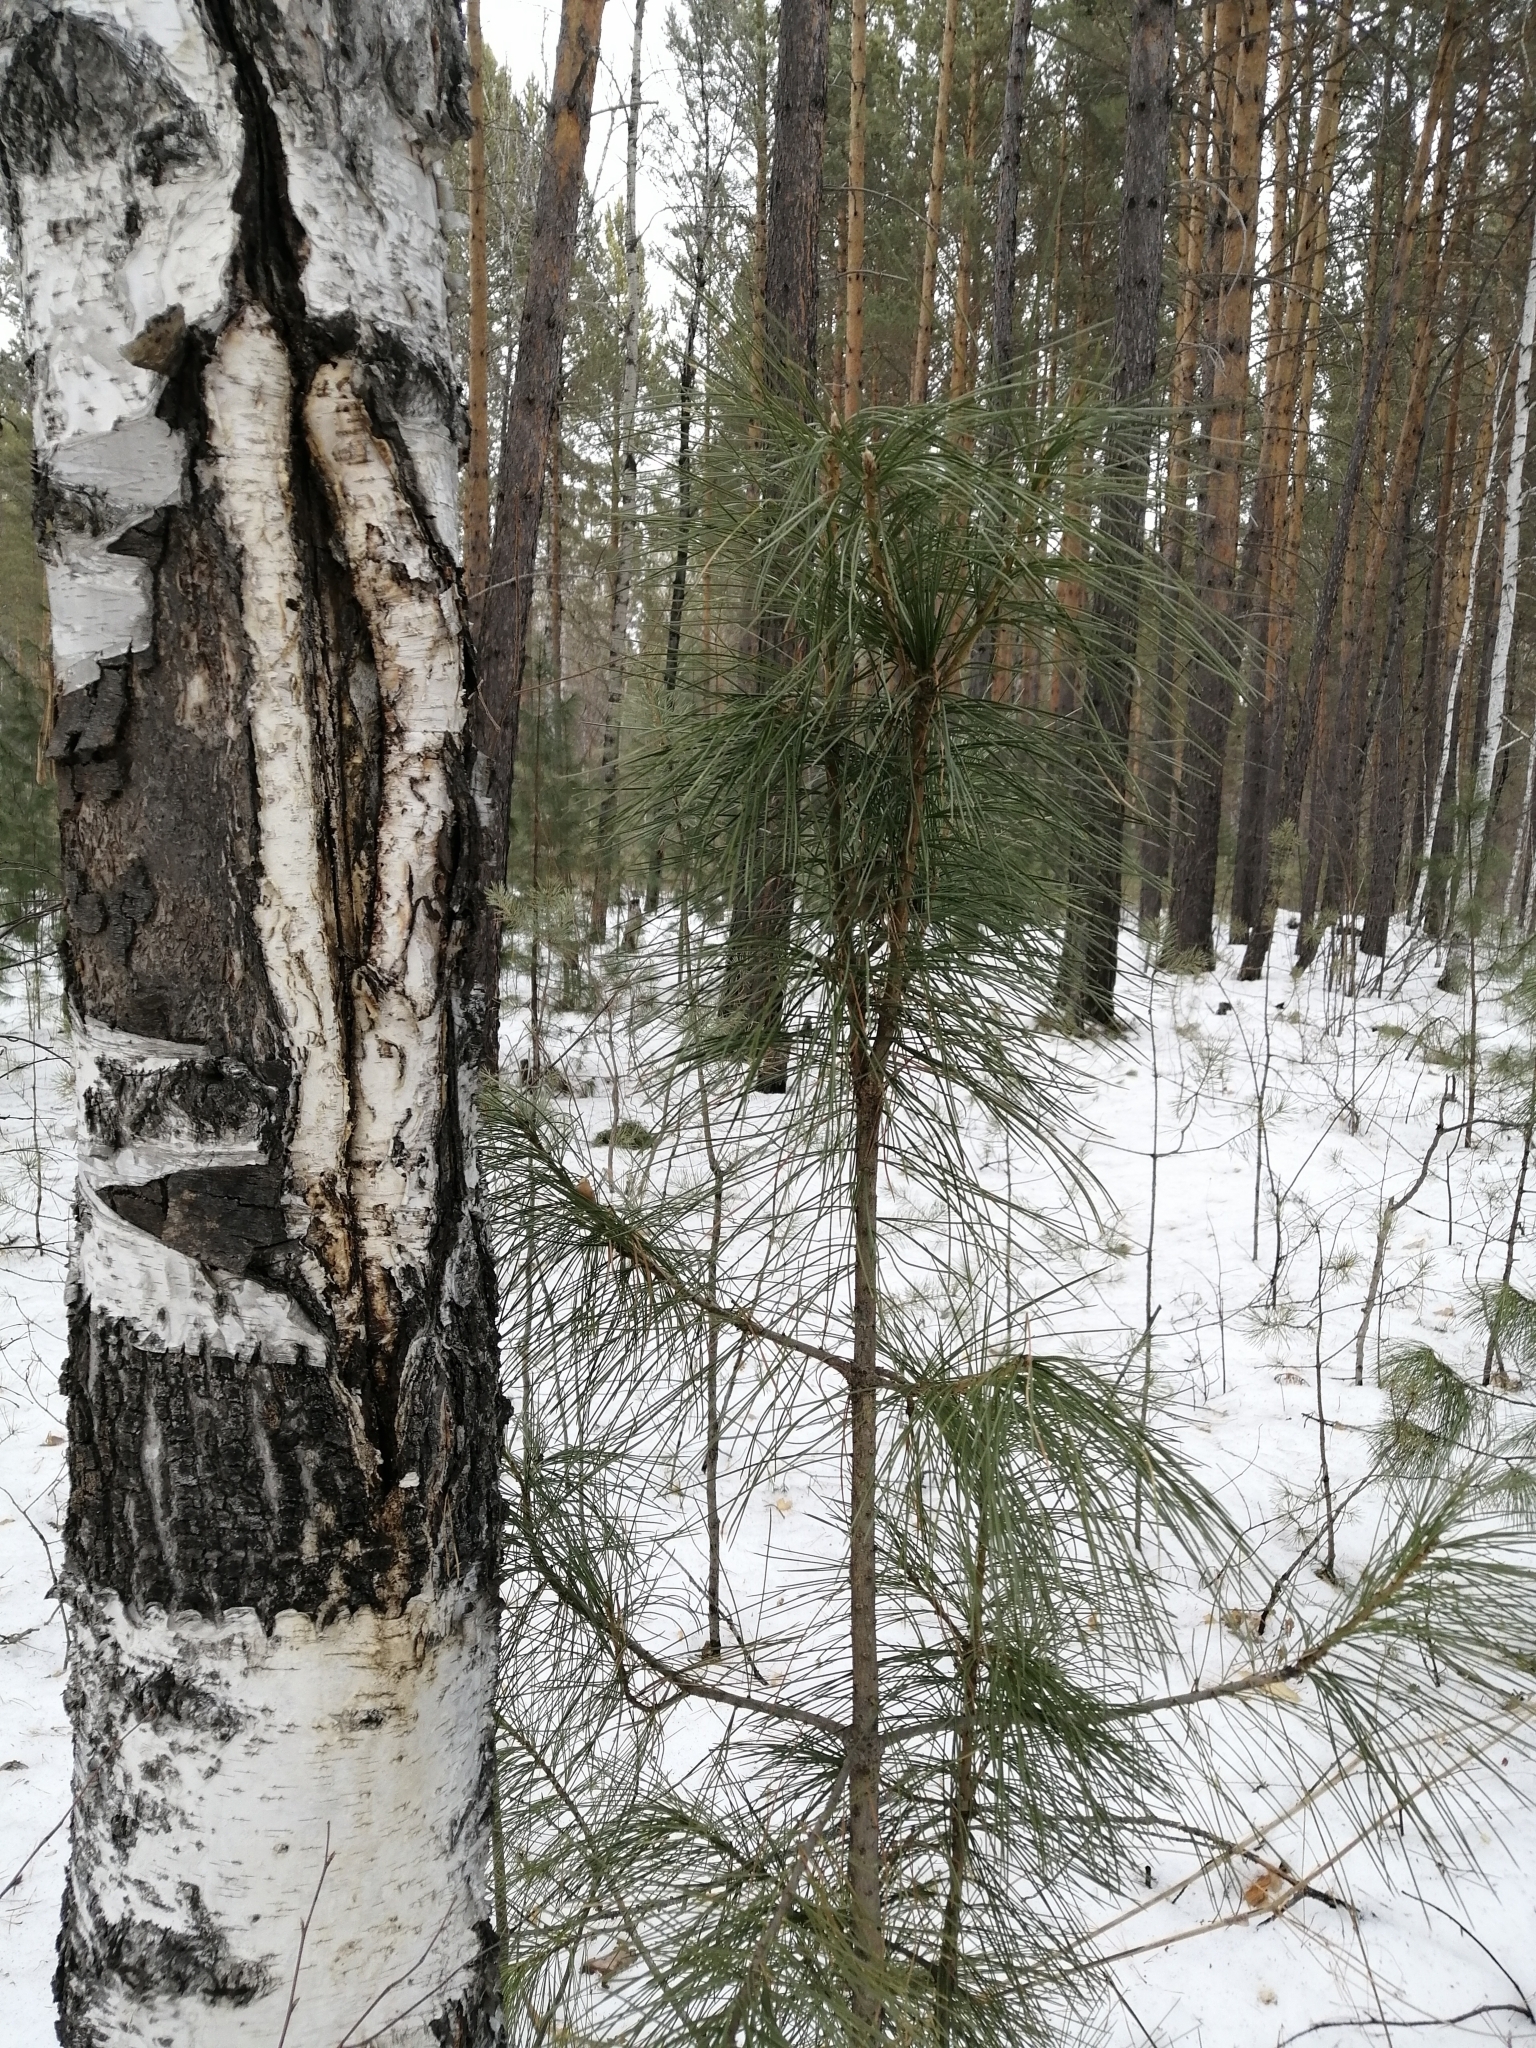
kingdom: Plantae
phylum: Tracheophyta
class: Pinopsida
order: Pinales
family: Pinaceae
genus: Pinus
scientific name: Pinus sibirica
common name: Siberian pine
